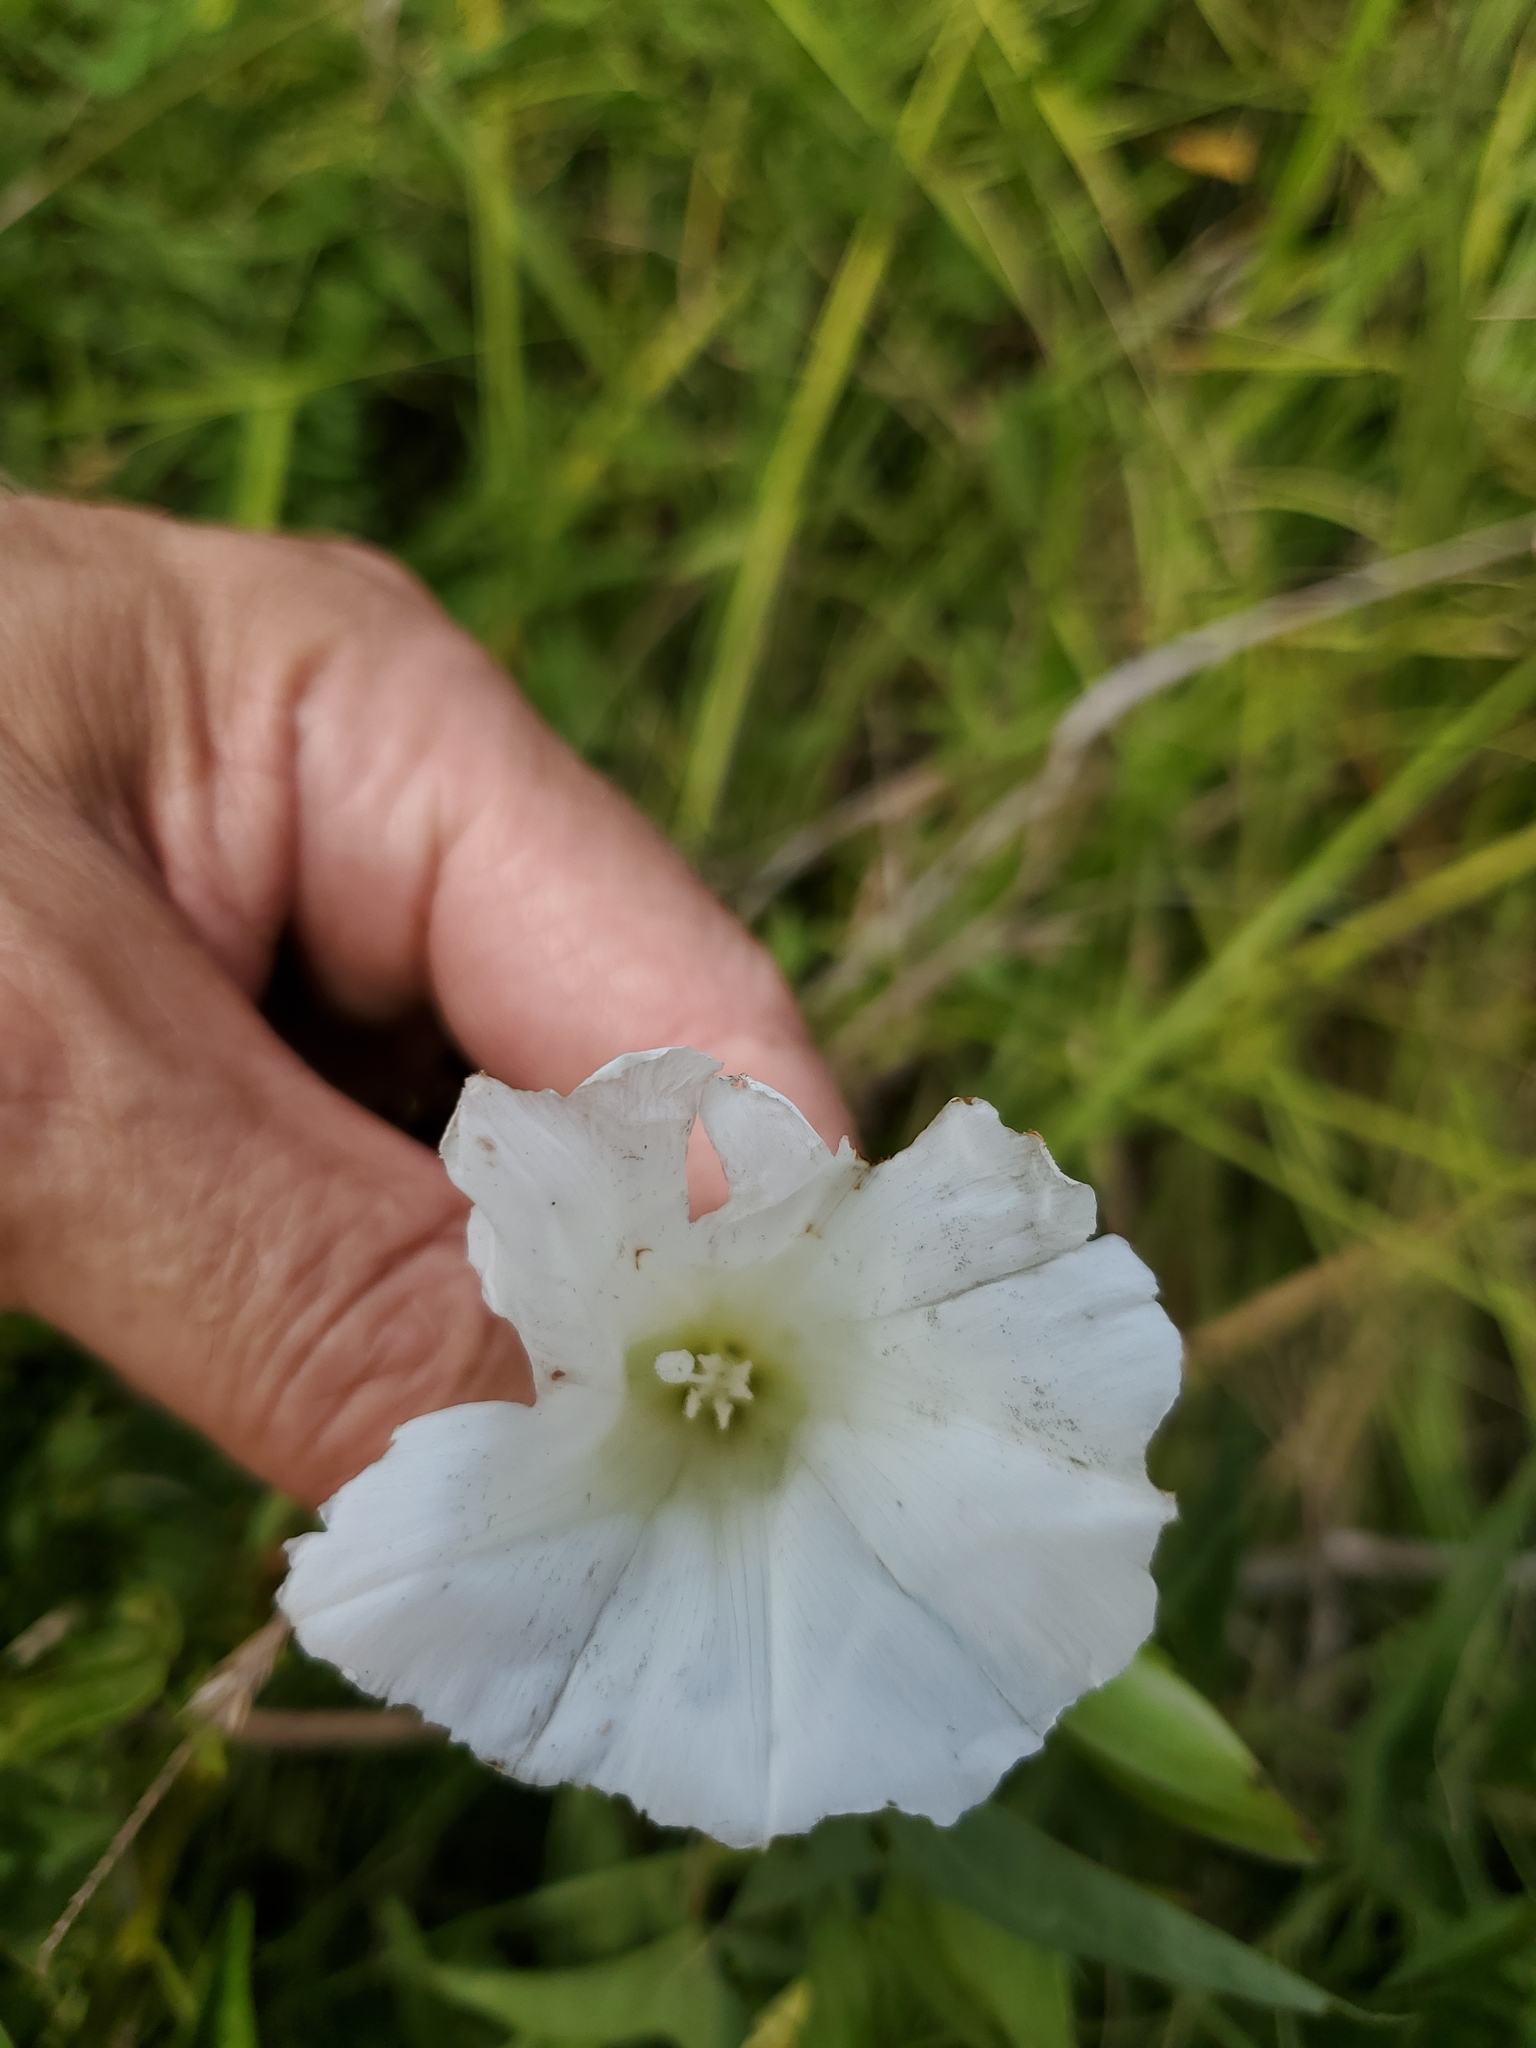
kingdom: Plantae
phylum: Tracheophyta
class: Magnoliopsida
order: Solanales
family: Convolvulaceae
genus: Calystegia
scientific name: Calystegia sepium
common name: Hedge bindweed
